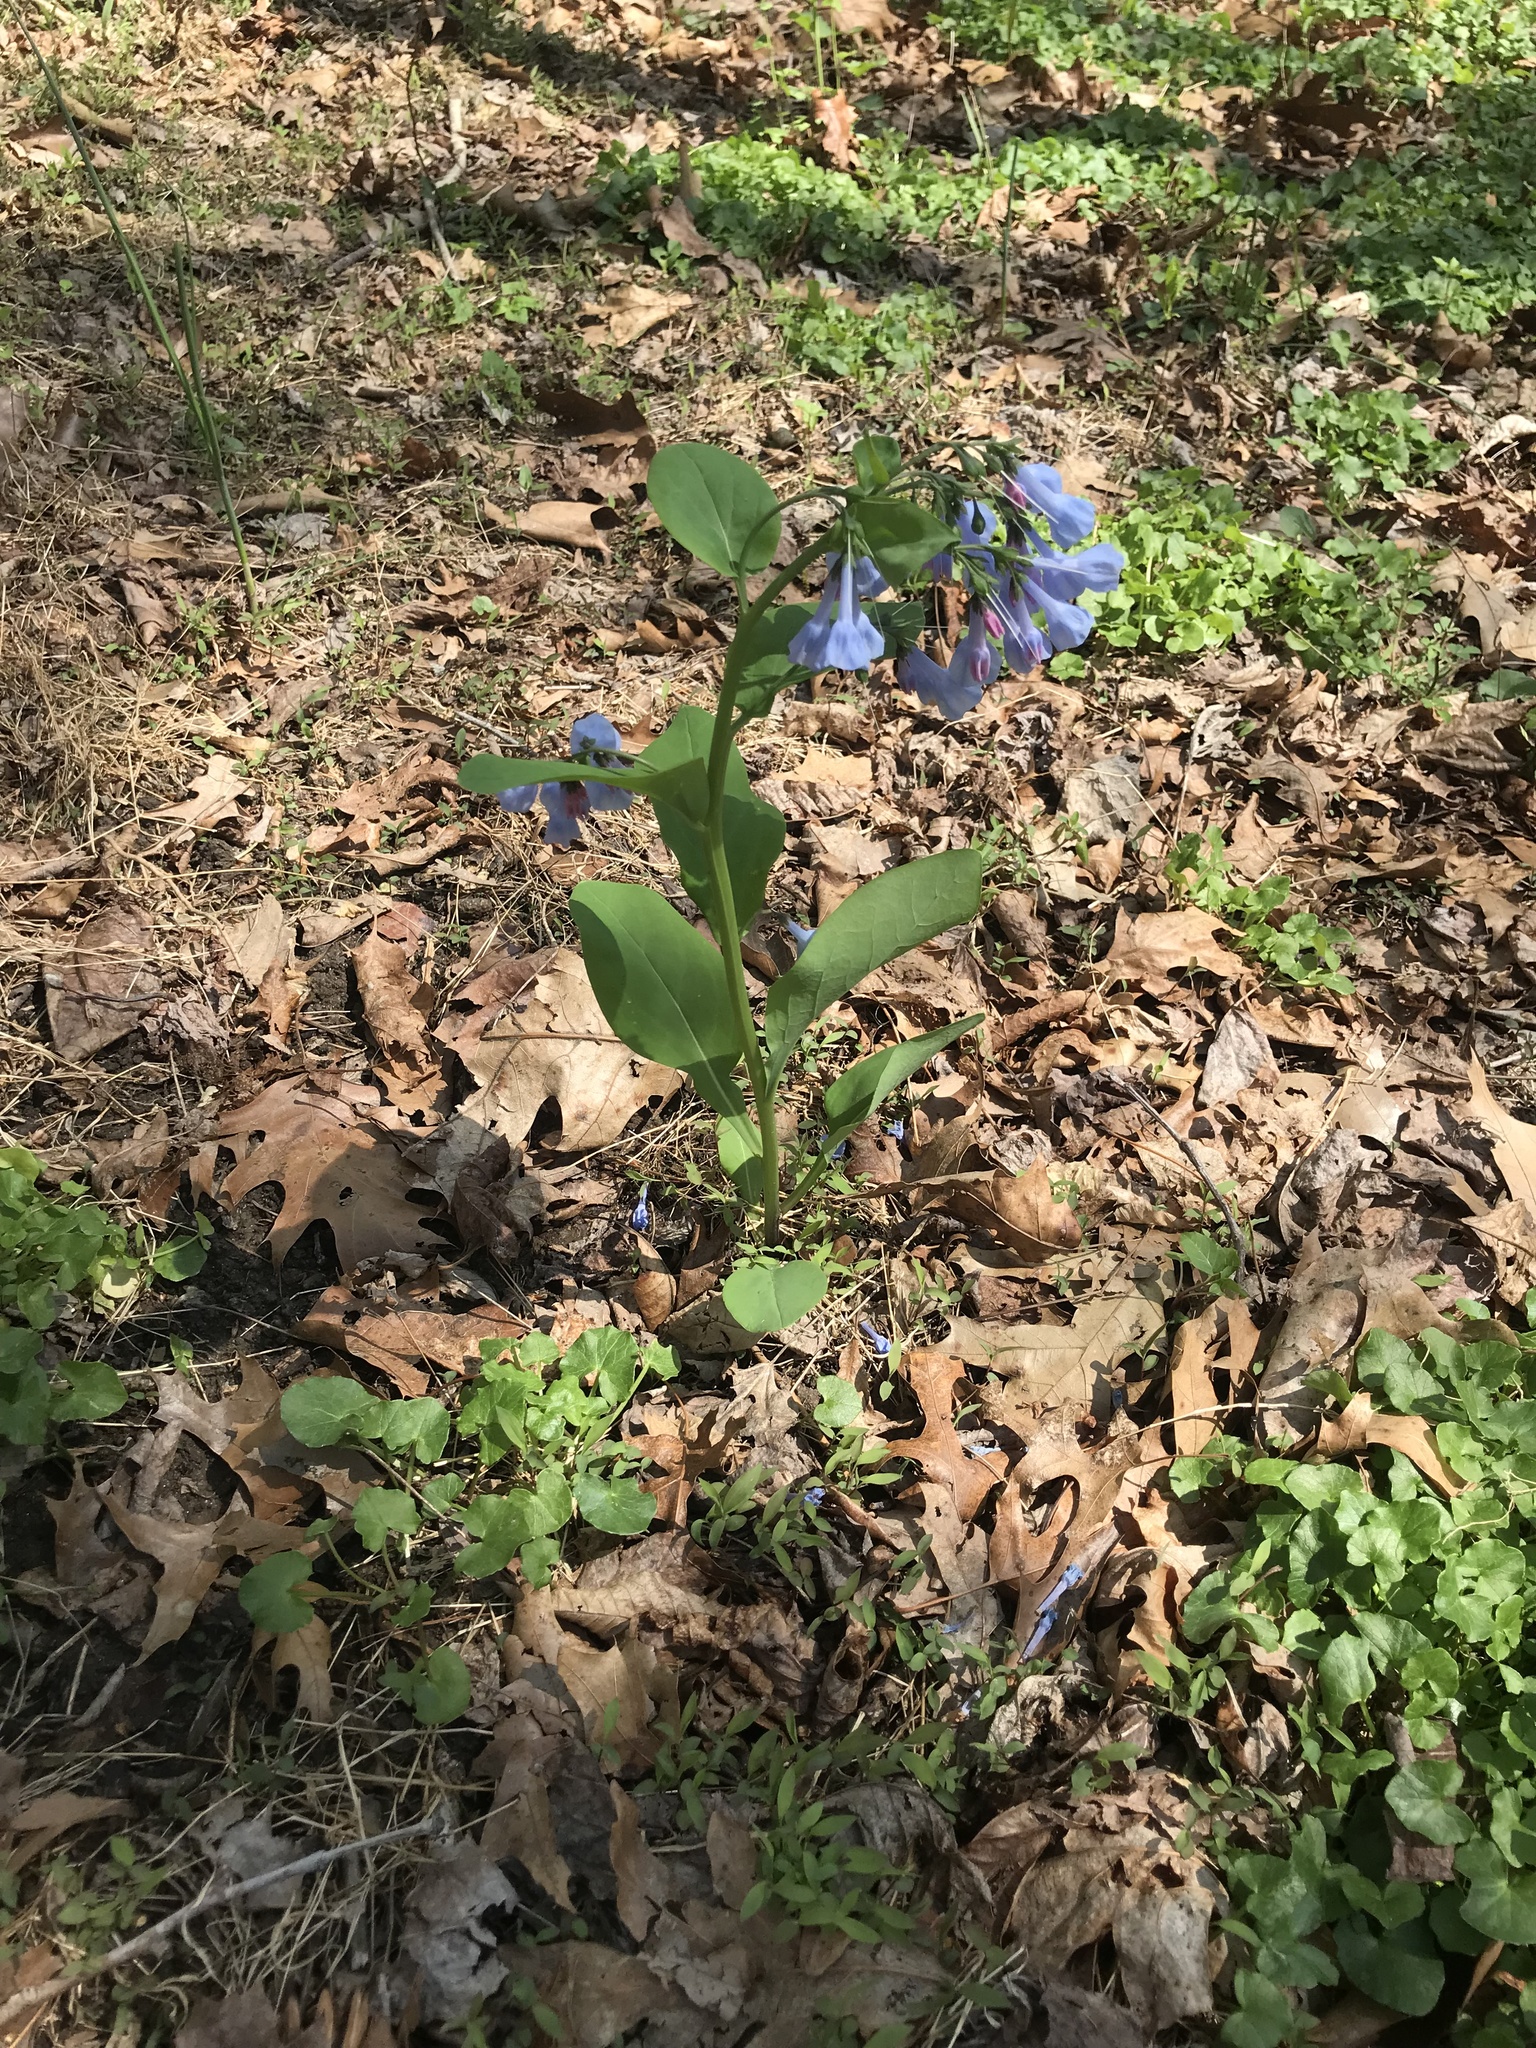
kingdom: Plantae
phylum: Tracheophyta
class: Magnoliopsida
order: Boraginales
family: Boraginaceae
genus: Mertensia
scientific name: Mertensia virginica
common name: Virginia bluebells
